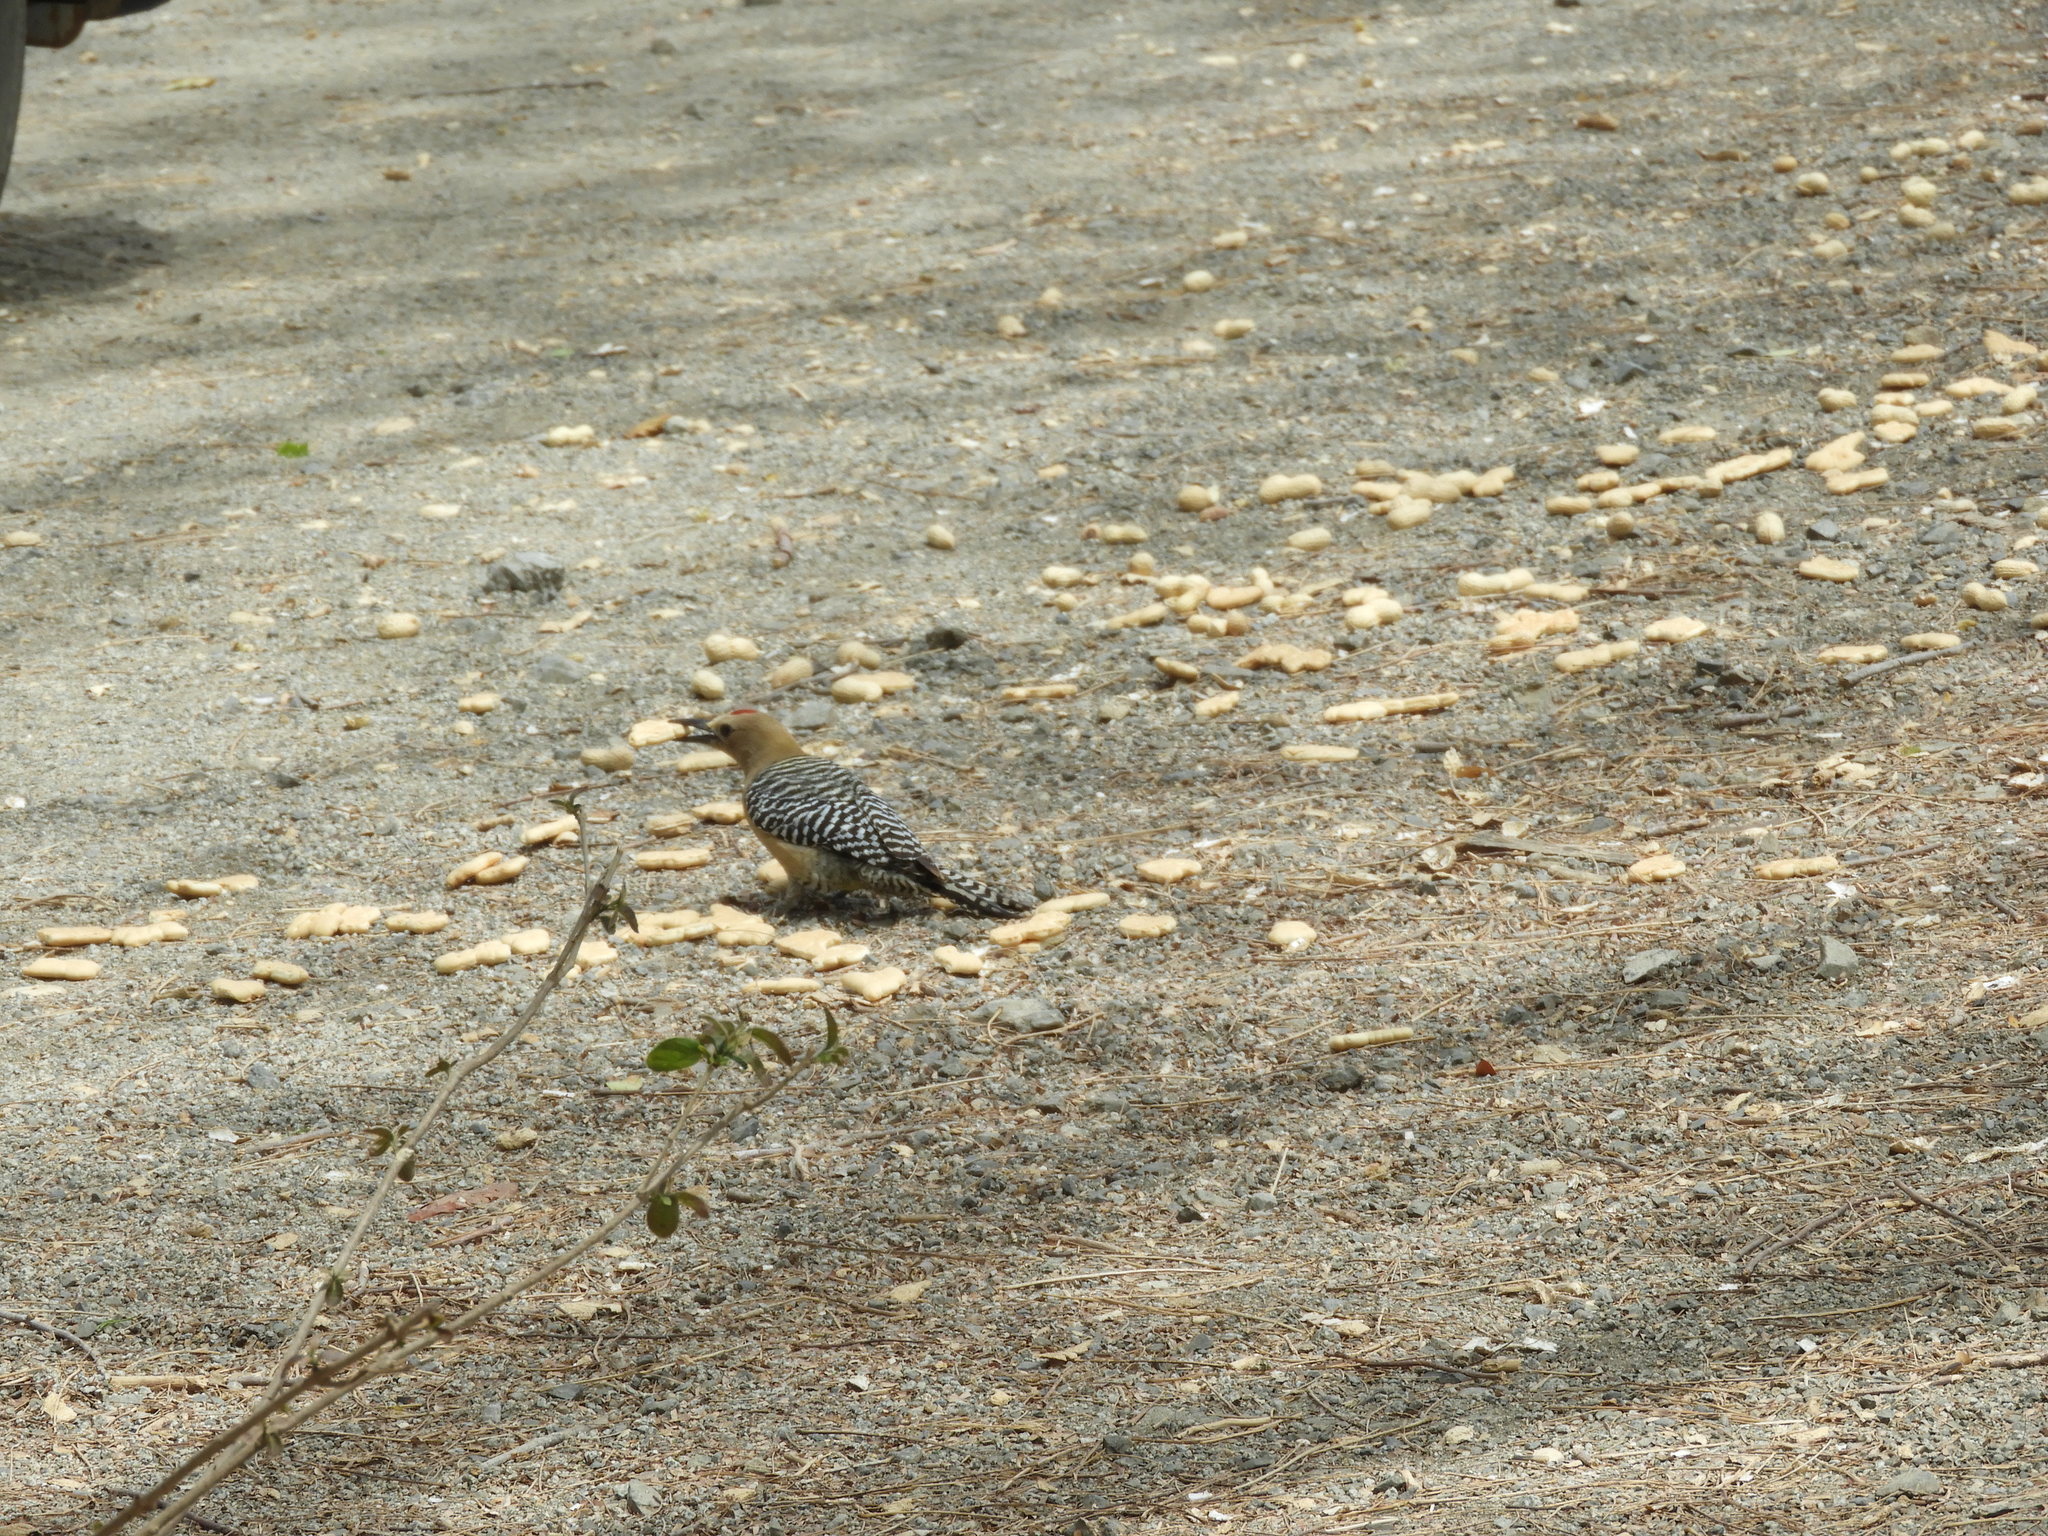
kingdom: Animalia
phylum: Chordata
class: Aves
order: Piciformes
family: Picidae
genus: Melanerpes
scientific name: Melanerpes uropygialis
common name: Gila woodpecker
